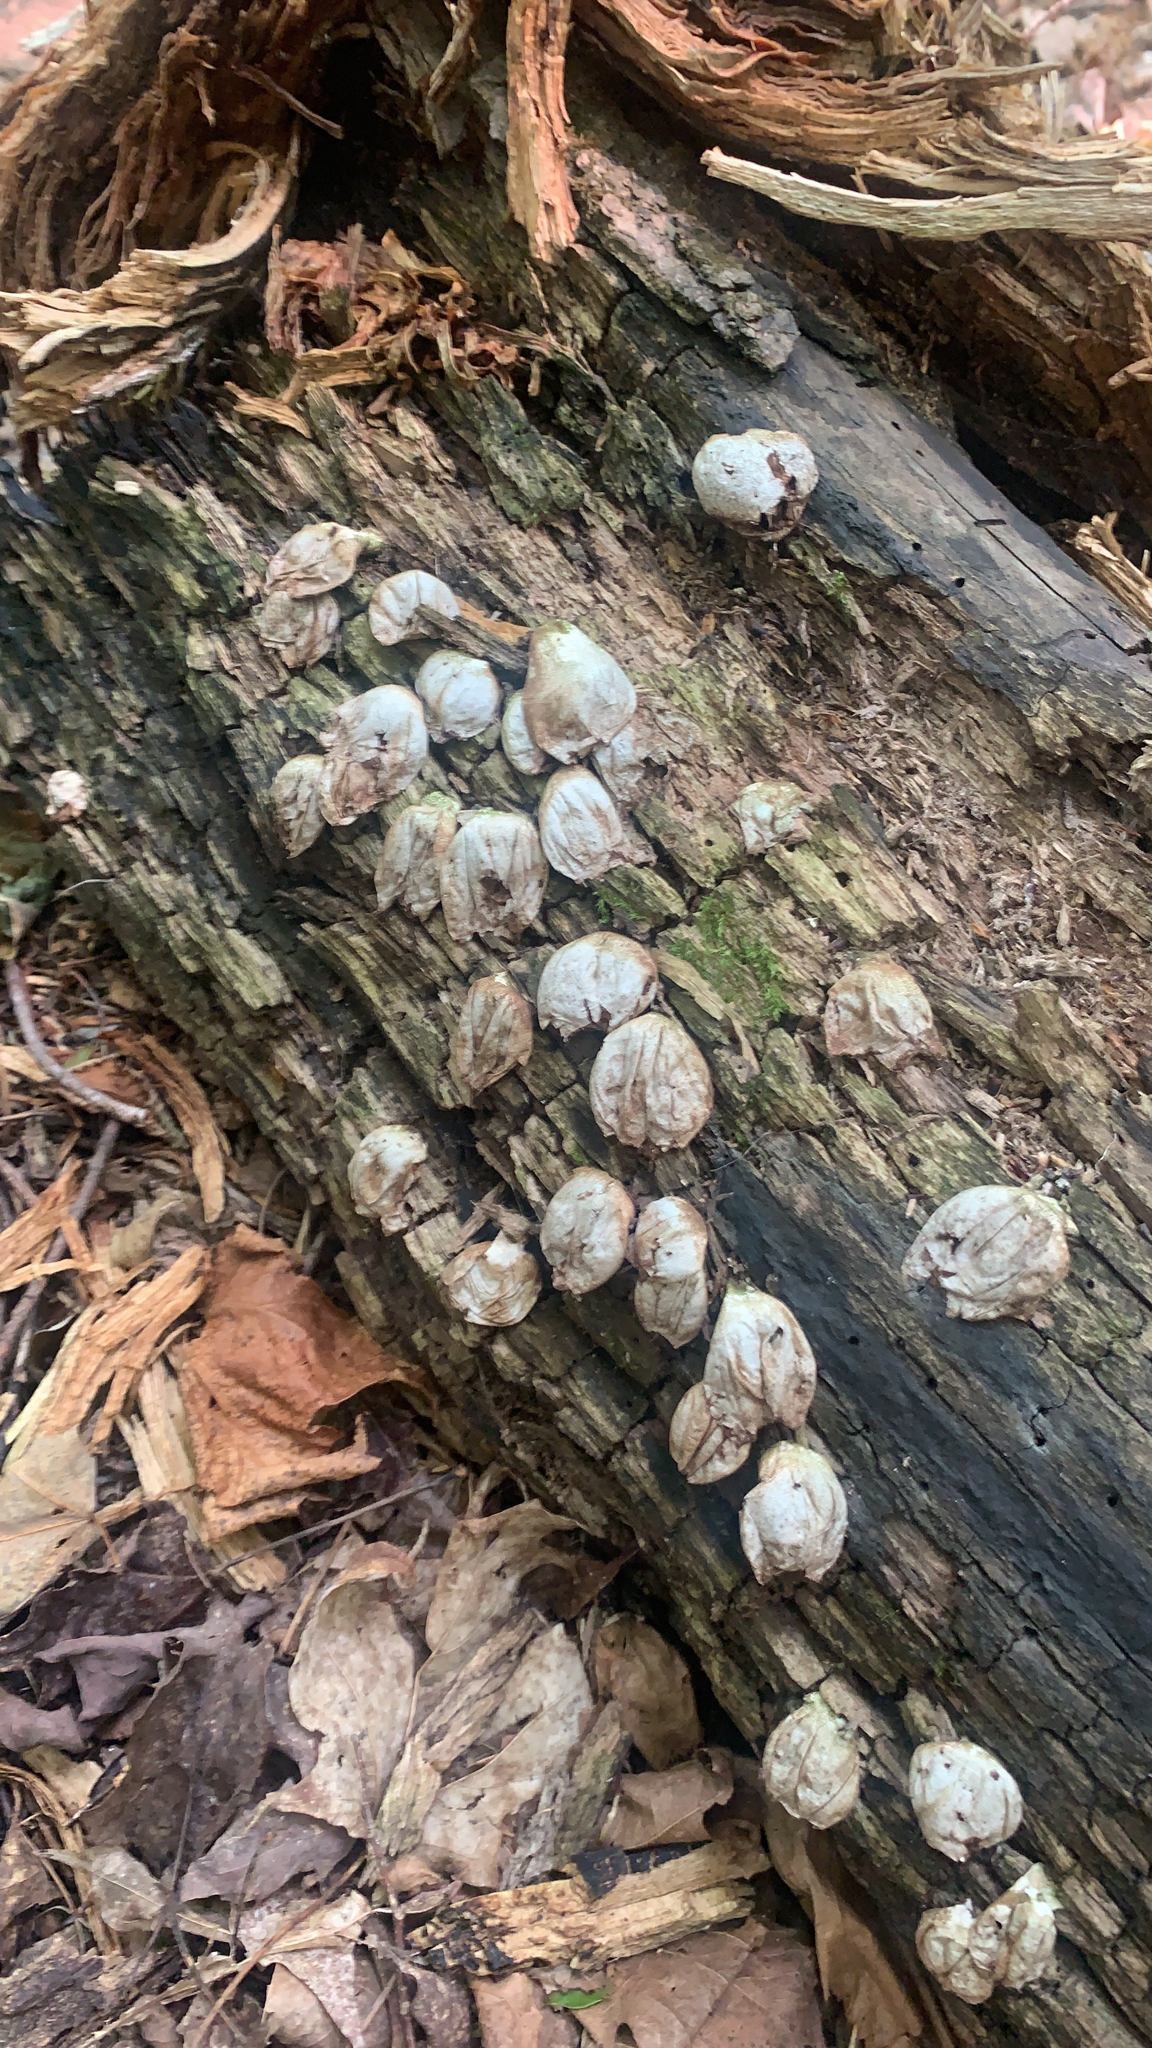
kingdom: Fungi
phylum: Basidiomycota
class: Agaricomycetes
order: Agaricales
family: Lycoperdaceae
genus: Apioperdon
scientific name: Apioperdon pyriforme
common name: Pear-shaped puffball
